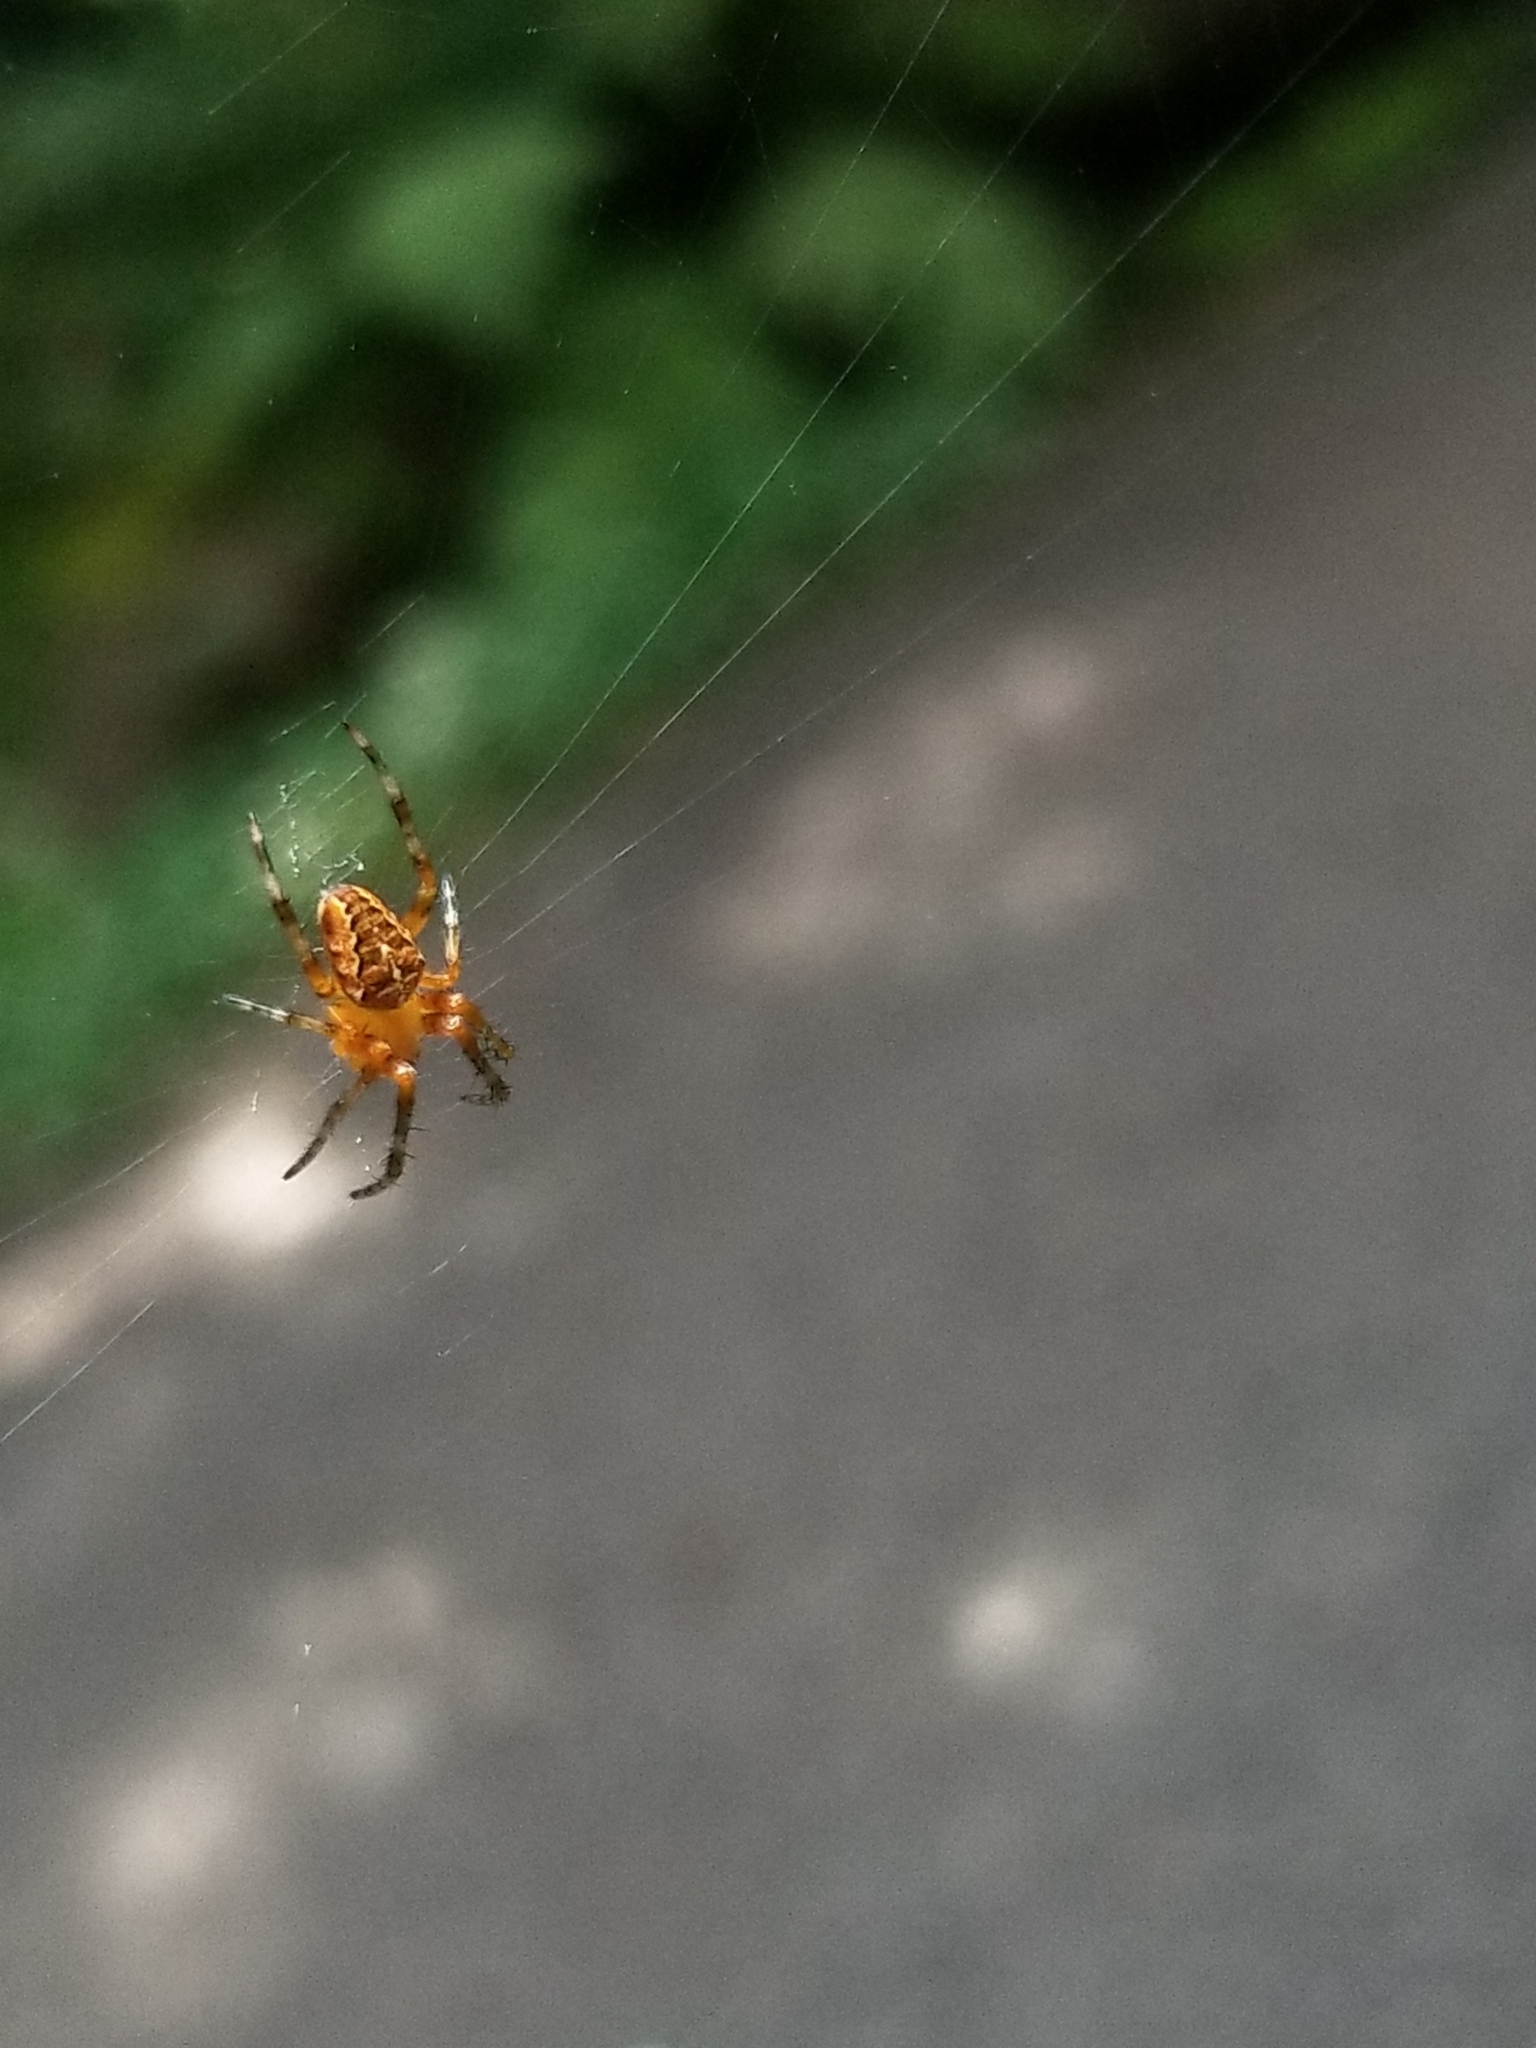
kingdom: Animalia
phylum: Arthropoda
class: Arachnida
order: Araneae
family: Araneidae
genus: Araneus
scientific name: Araneus diadematus
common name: Cross orbweaver
